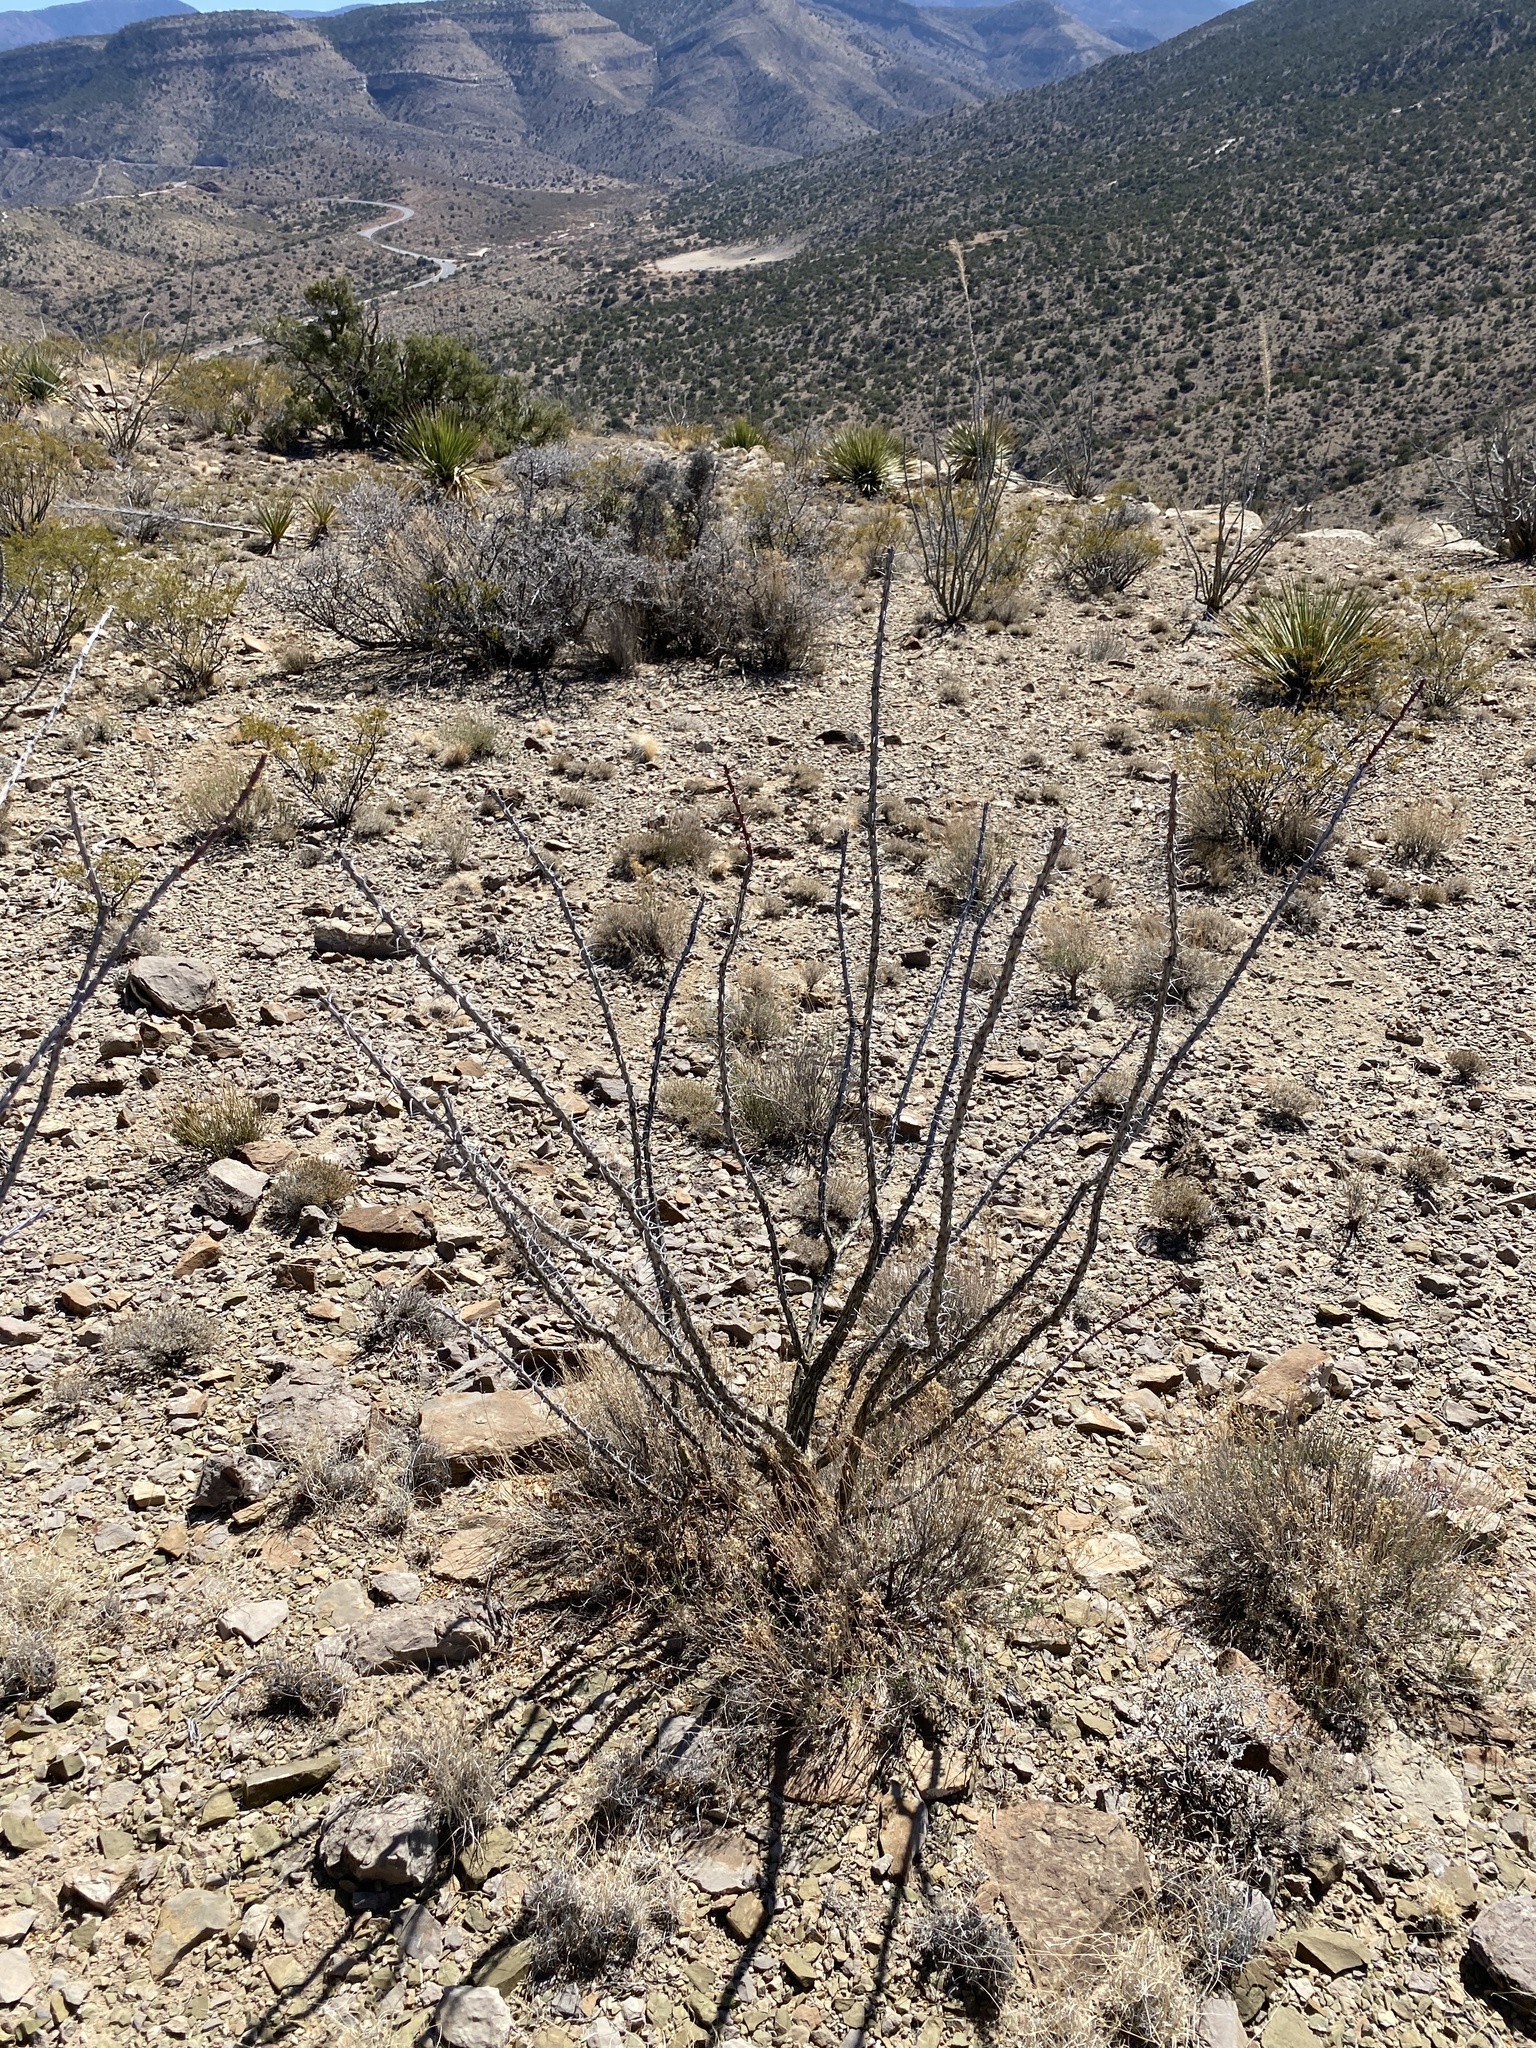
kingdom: Plantae
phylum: Tracheophyta
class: Magnoliopsida
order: Ericales
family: Fouquieriaceae
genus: Fouquieria
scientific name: Fouquieria splendens
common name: Vine-cactus
